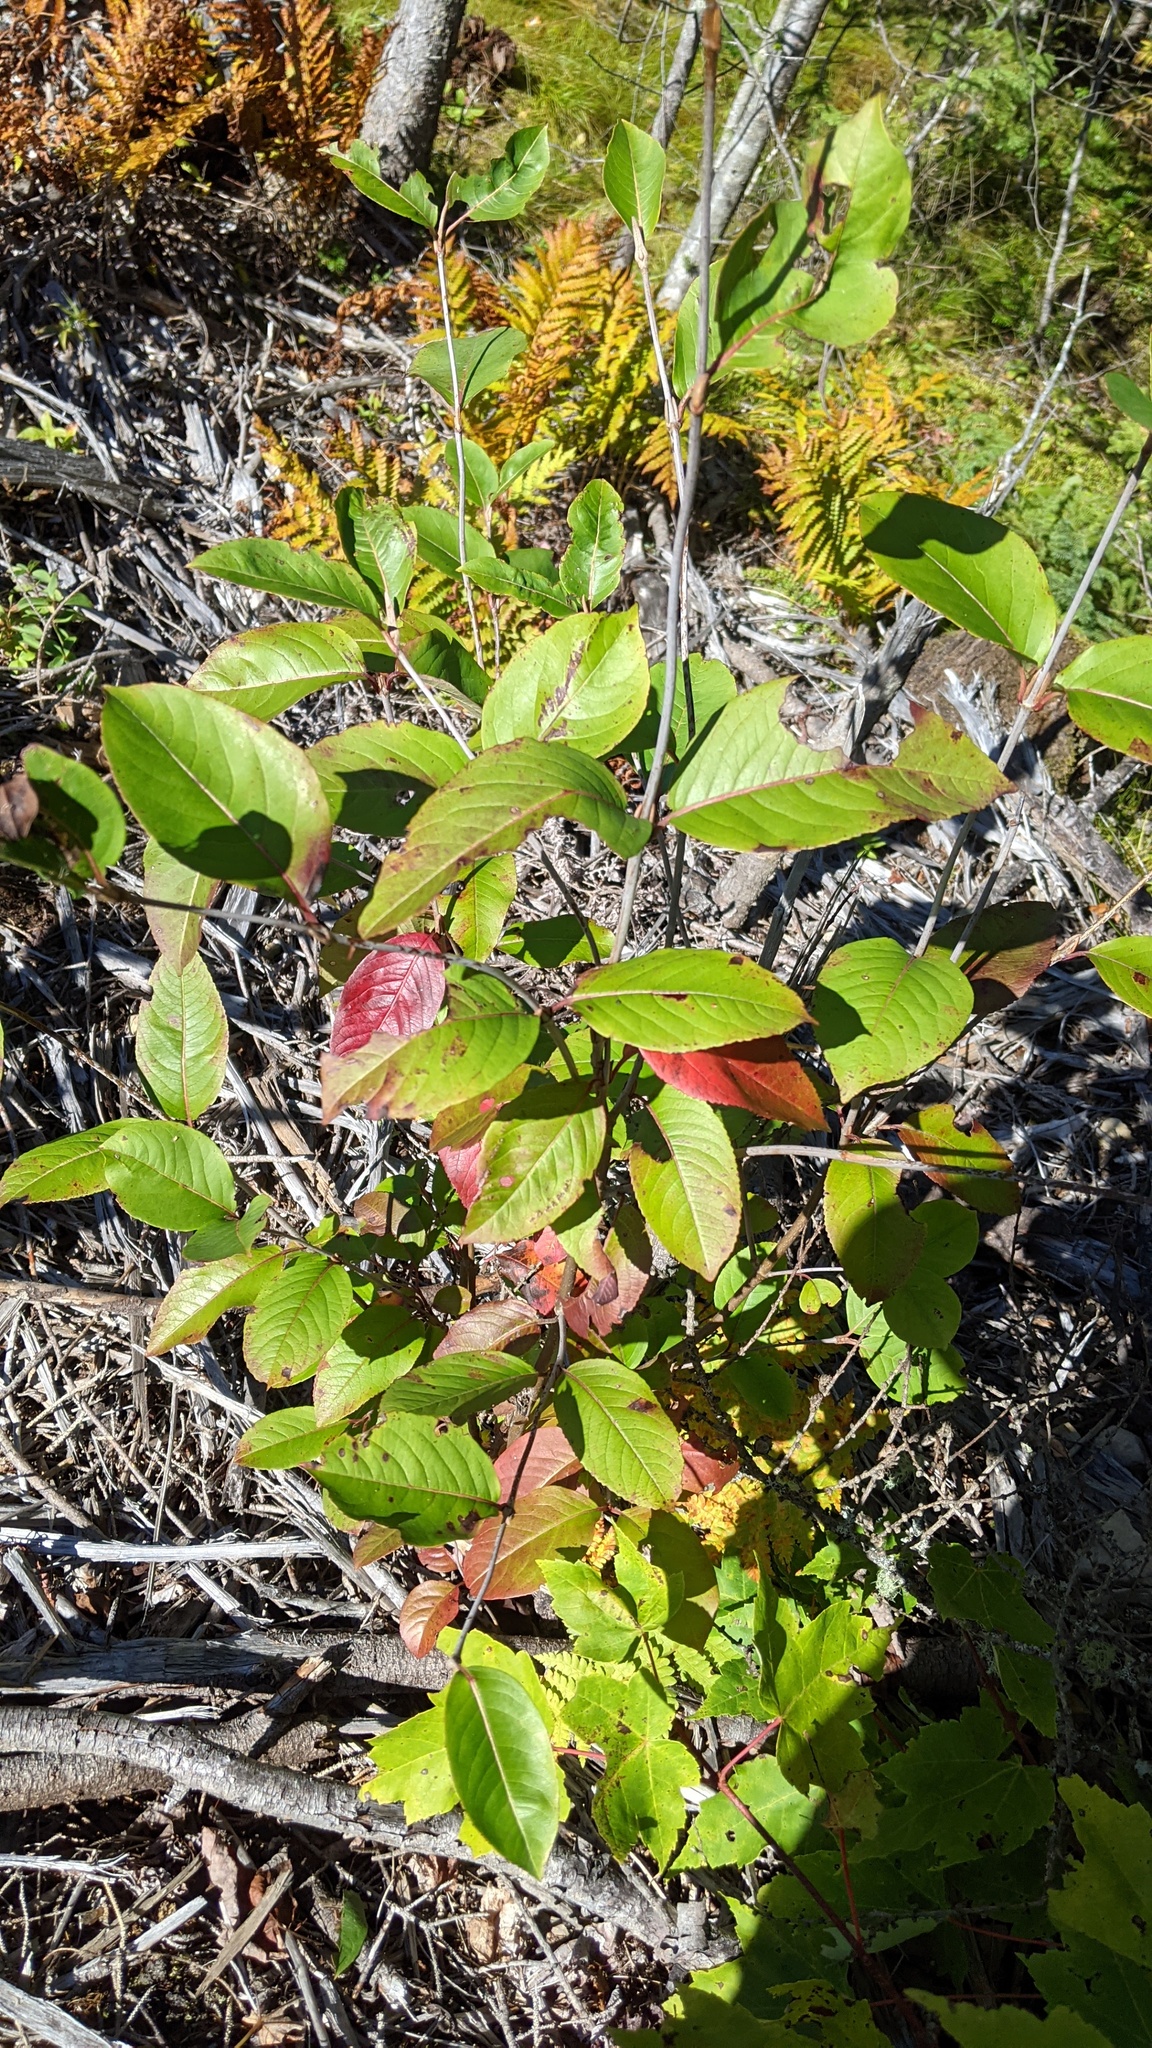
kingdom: Plantae
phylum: Tracheophyta
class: Magnoliopsida
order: Dipsacales
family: Viburnaceae
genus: Viburnum
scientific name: Viburnum cassinoides
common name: Swamp haw
